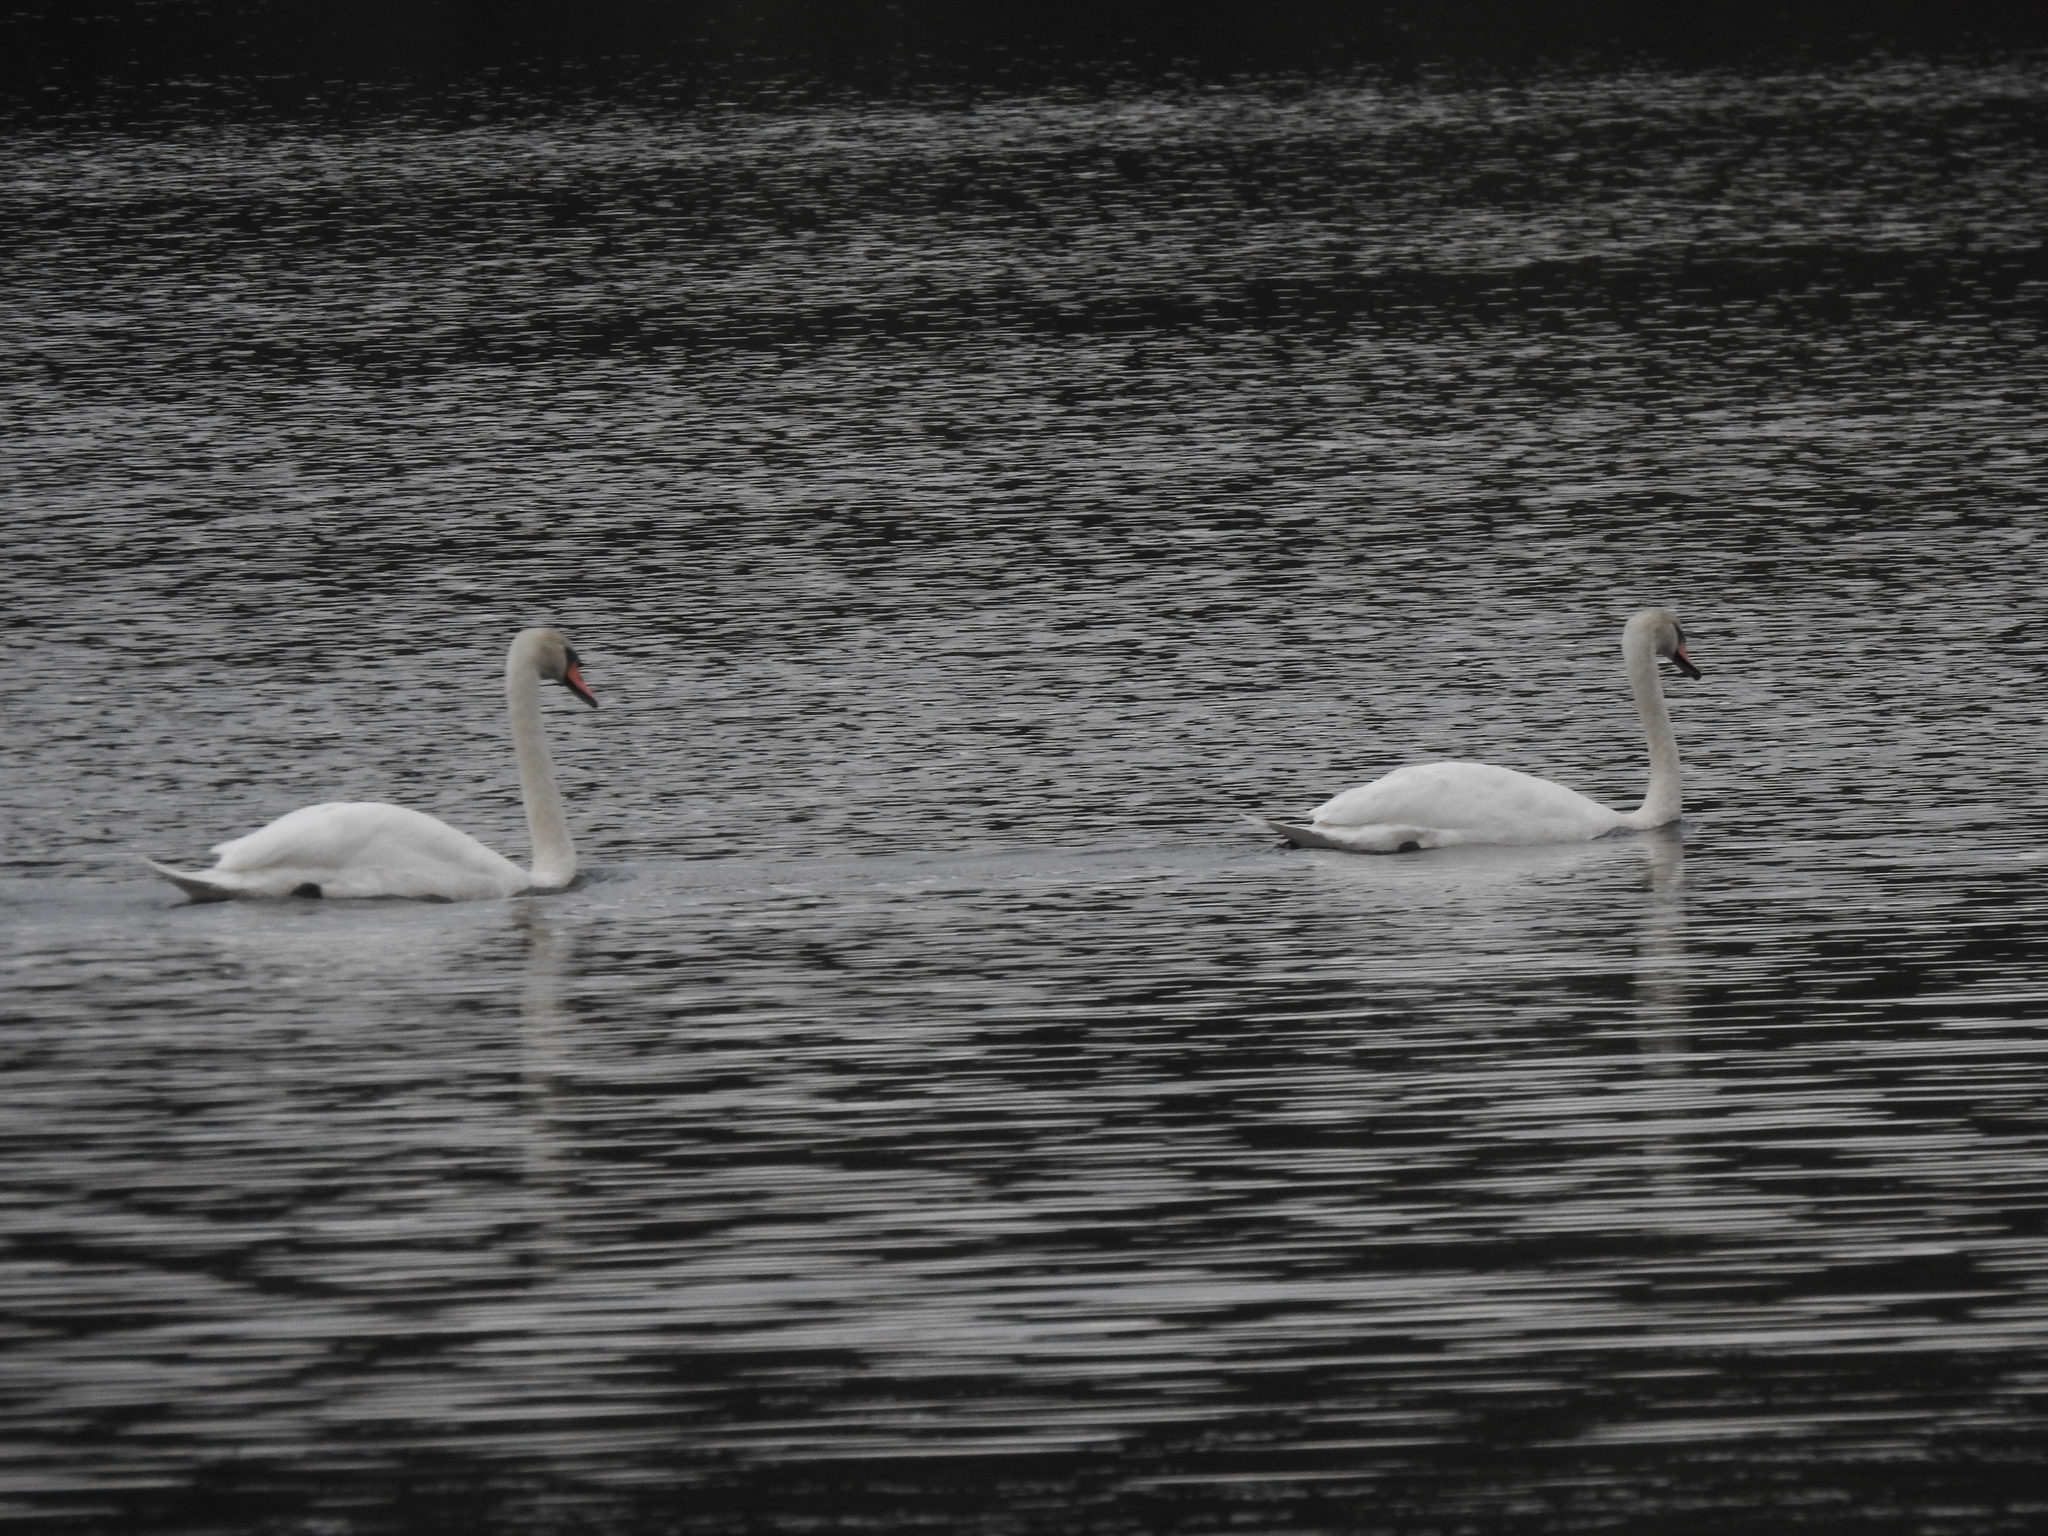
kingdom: Animalia
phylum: Chordata
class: Aves
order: Anseriformes
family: Anatidae
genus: Cygnus
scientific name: Cygnus olor
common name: Mute swan
